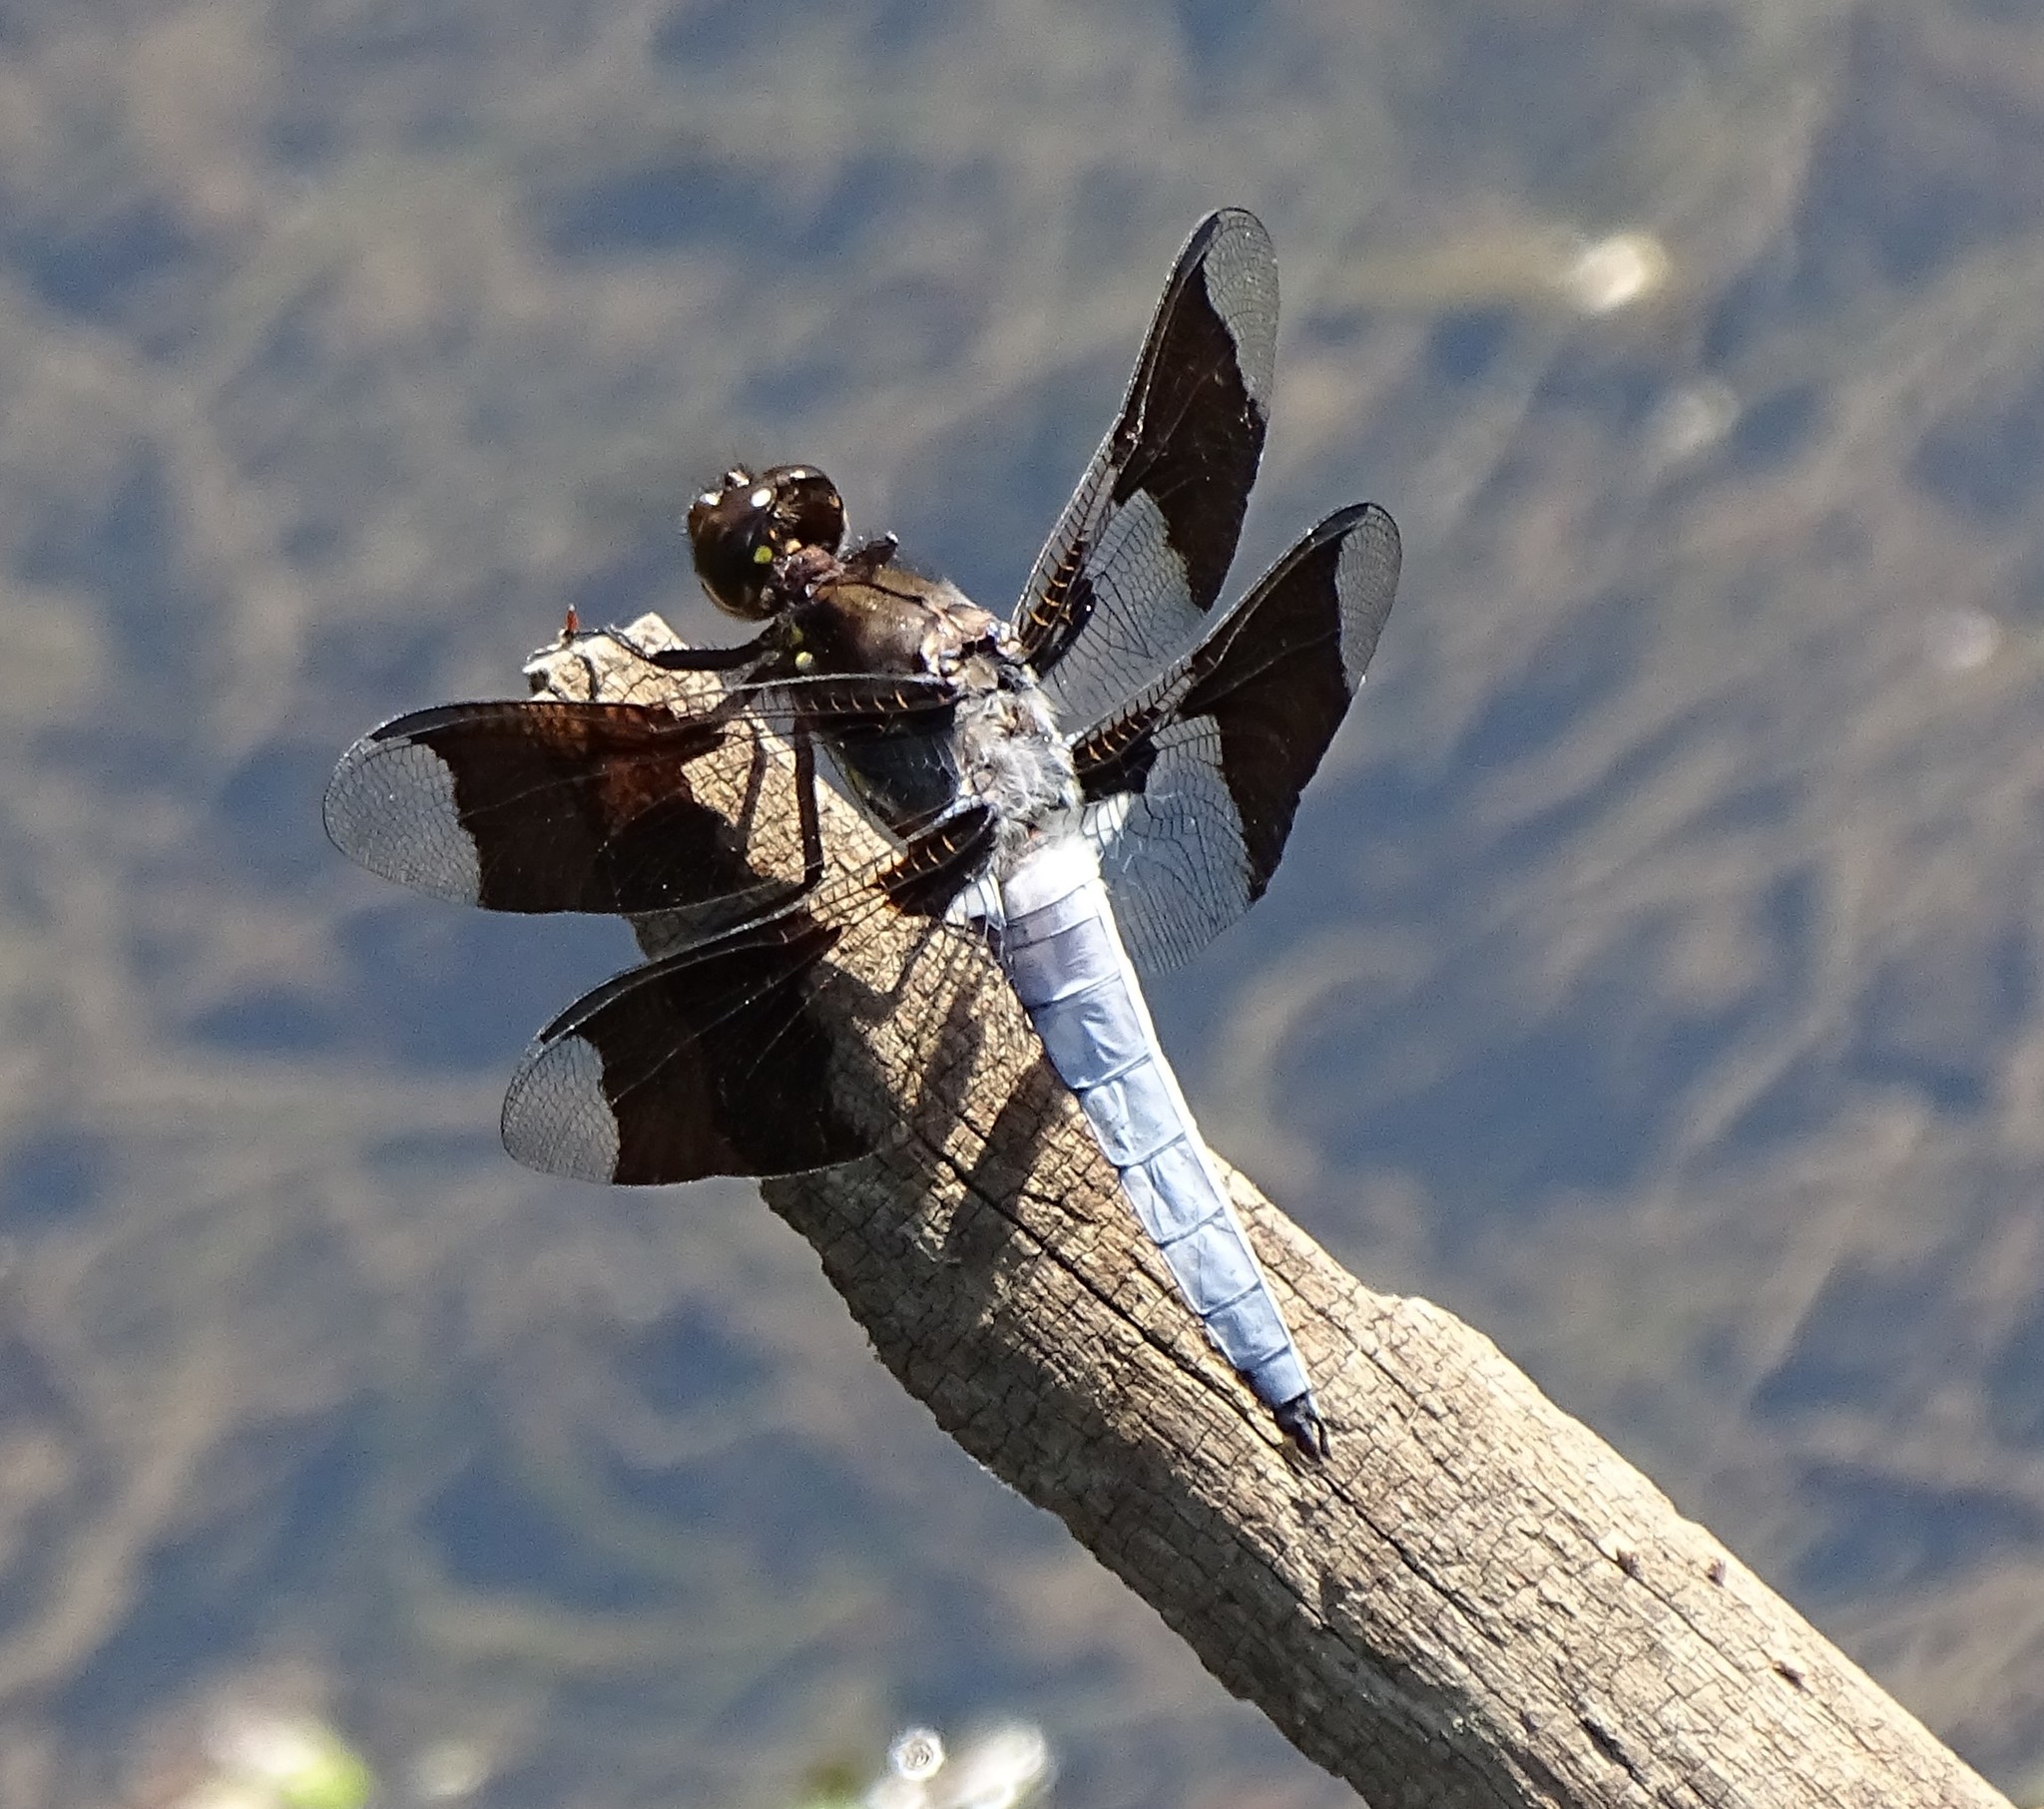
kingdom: Animalia
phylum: Arthropoda
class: Insecta
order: Odonata
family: Libellulidae
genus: Plathemis
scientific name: Plathemis lydia
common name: Common whitetail
